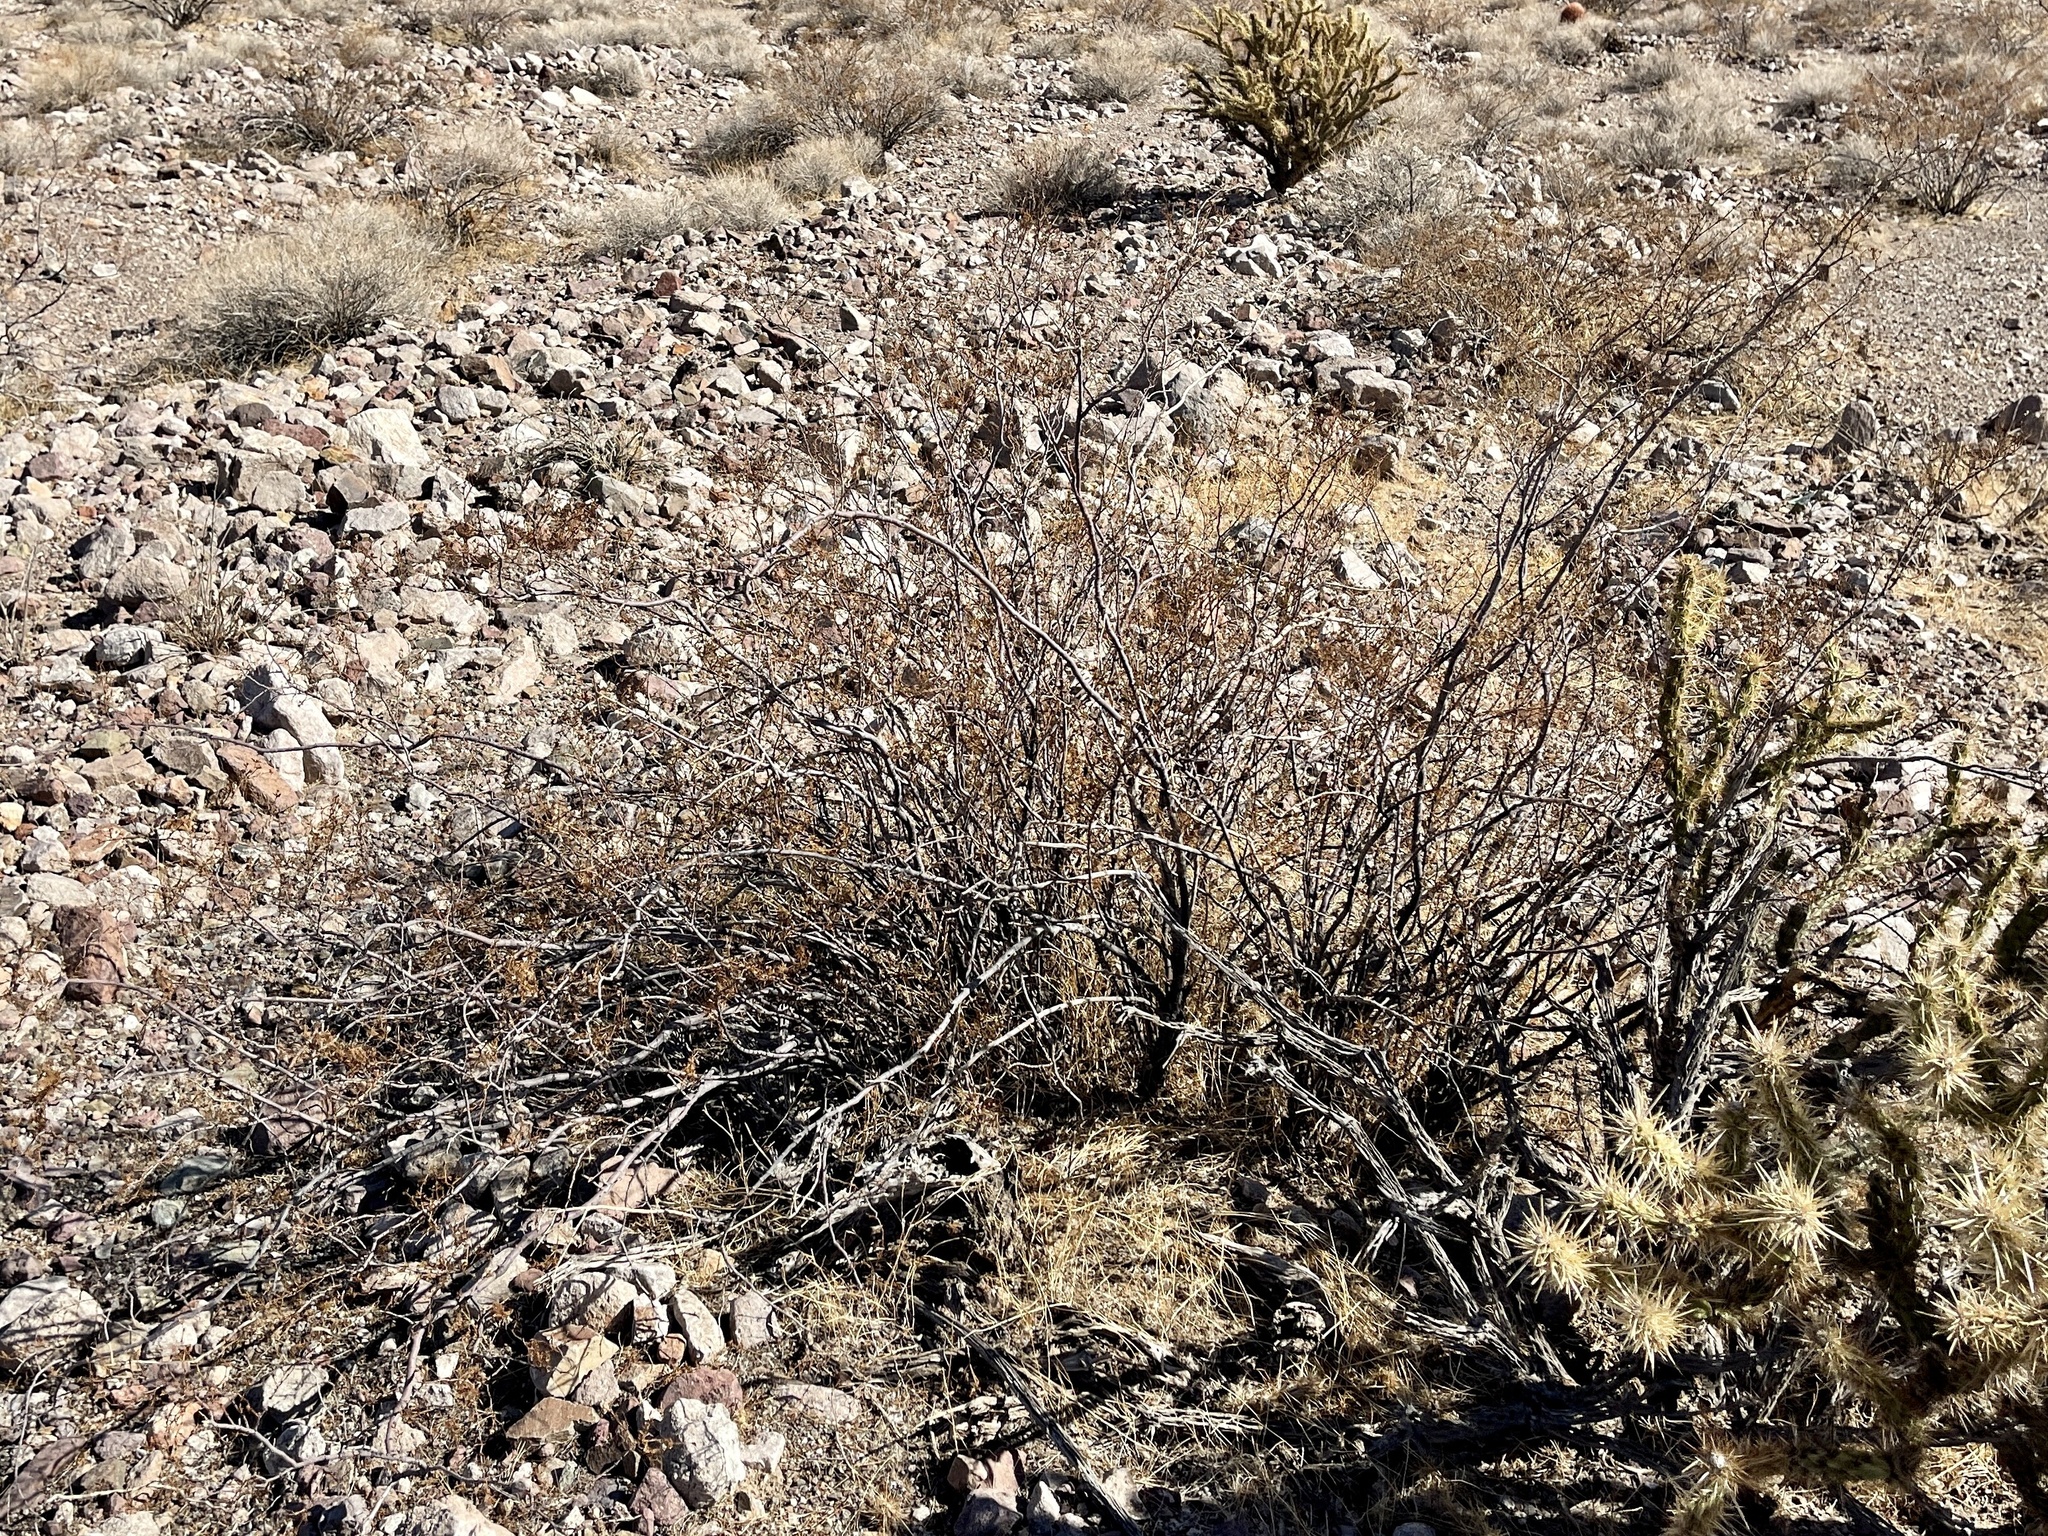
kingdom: Plantae
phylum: Tracheophyta
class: Magnoliopsida
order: Zygophyllales
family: Zygophyllaceae
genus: Larrea
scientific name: Larrea tridentata
